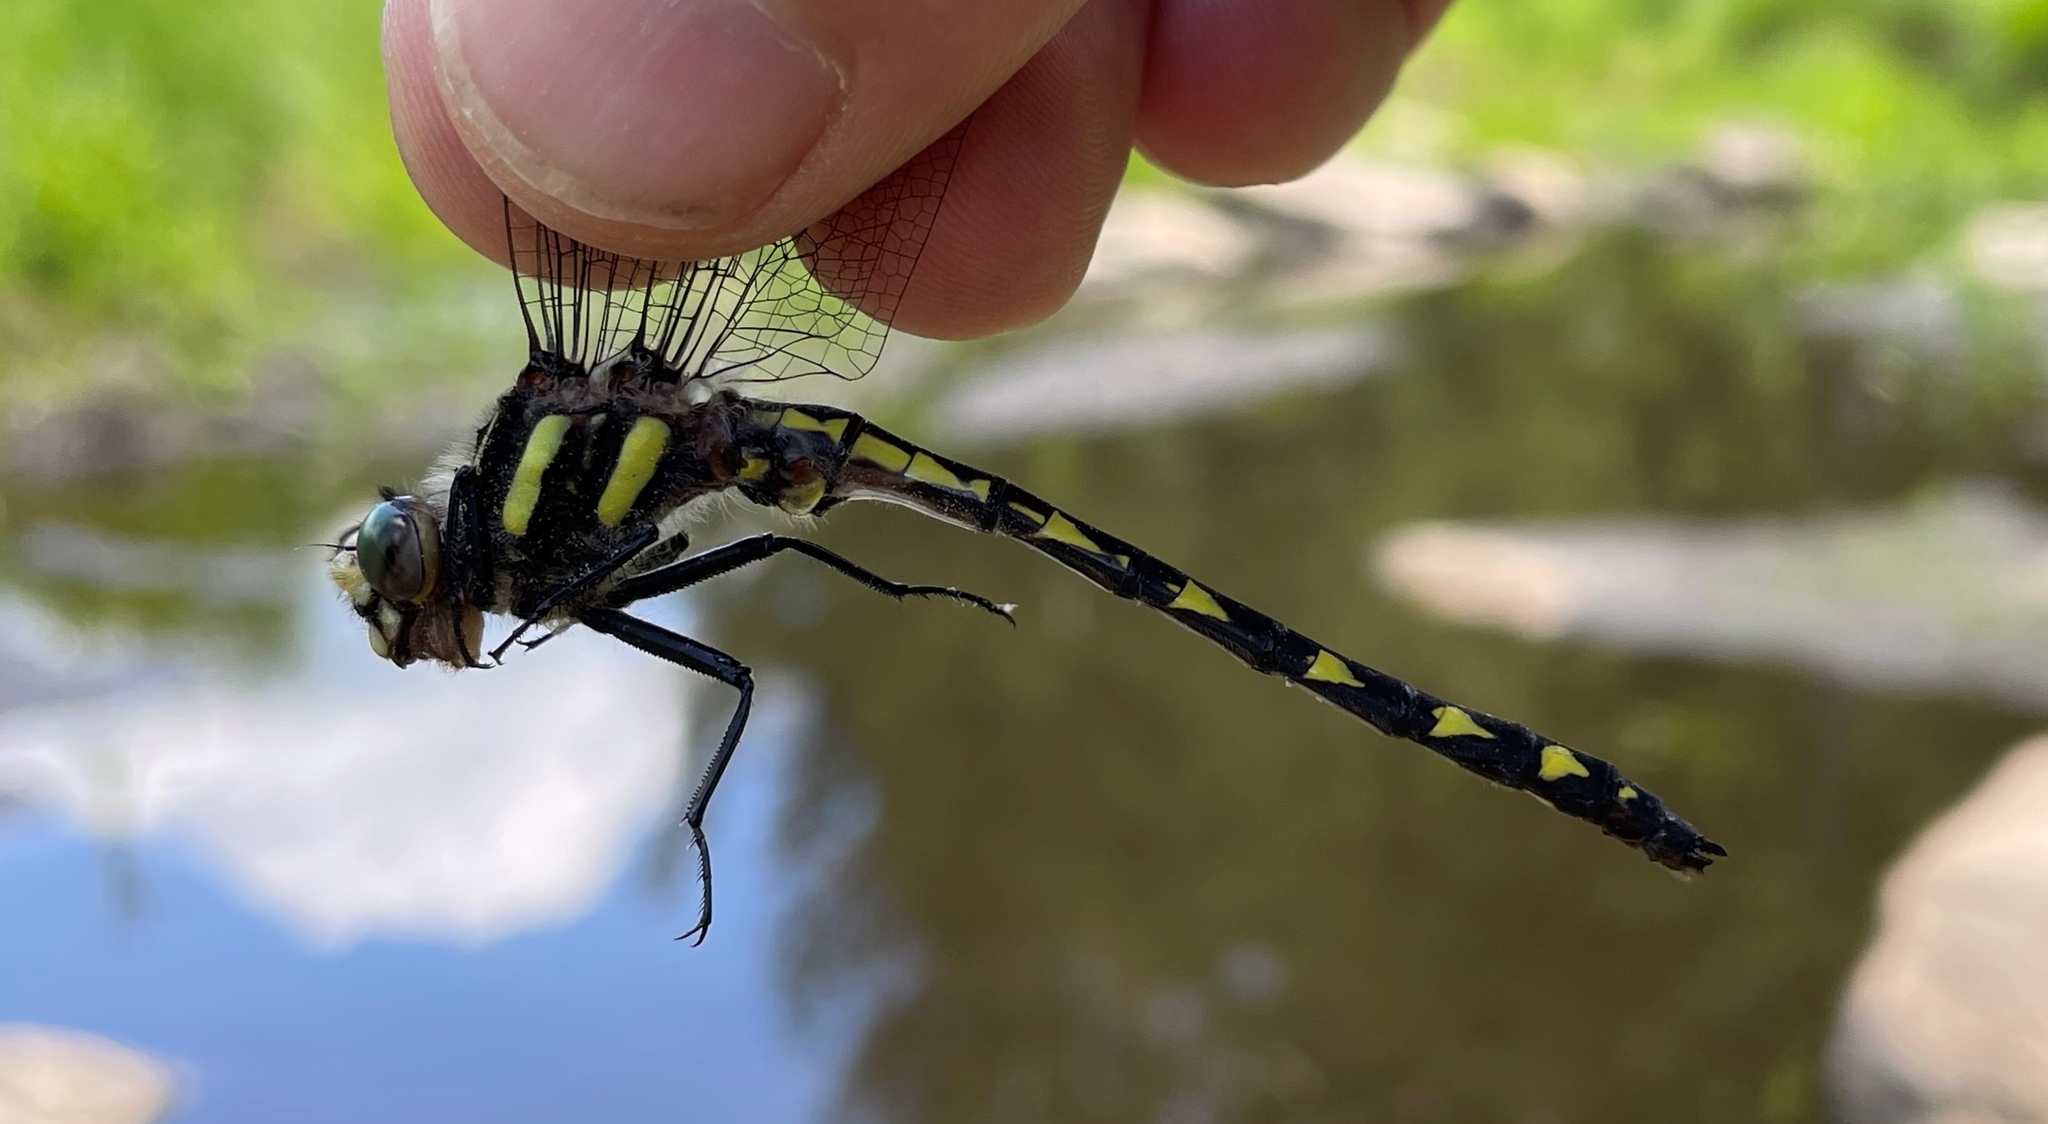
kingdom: Animalia
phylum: Arthropoda
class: Insecta
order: Odonata
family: Cordulegastridae
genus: Cordulegaster
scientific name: Cordulegaster diastatops
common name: Delta-spotted spiketail
